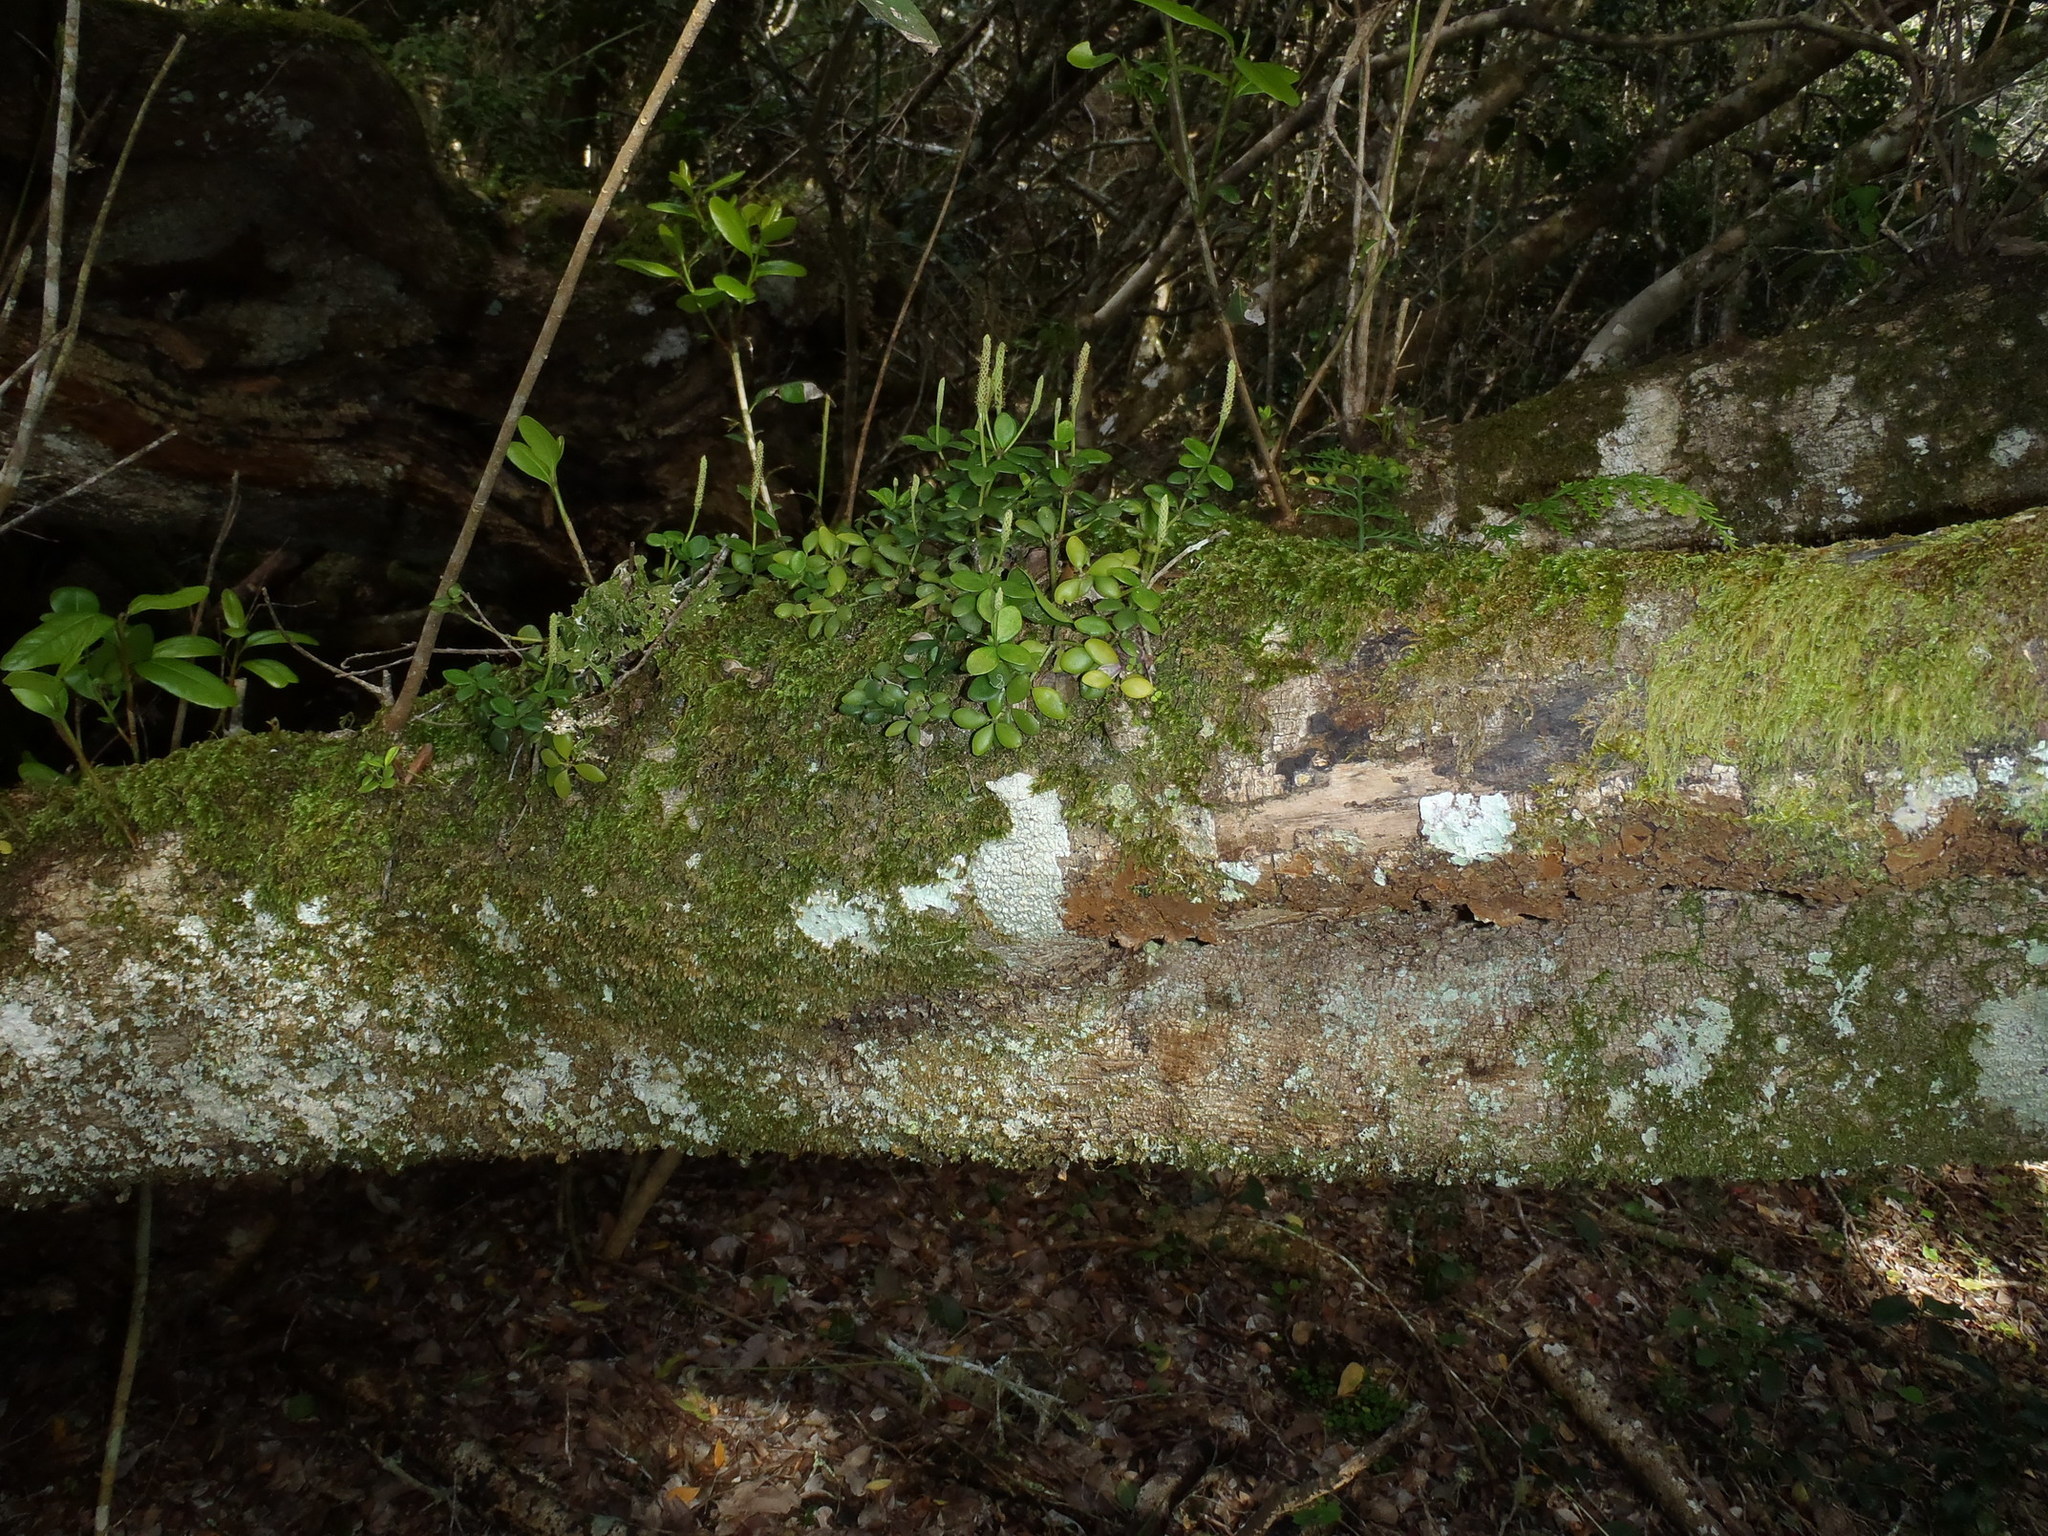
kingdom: Plantae
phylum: Tracheophyta
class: Magnoliopsida
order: Piperales
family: Piperaceae
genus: Peperomia
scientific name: Peperomia tetraphylla
